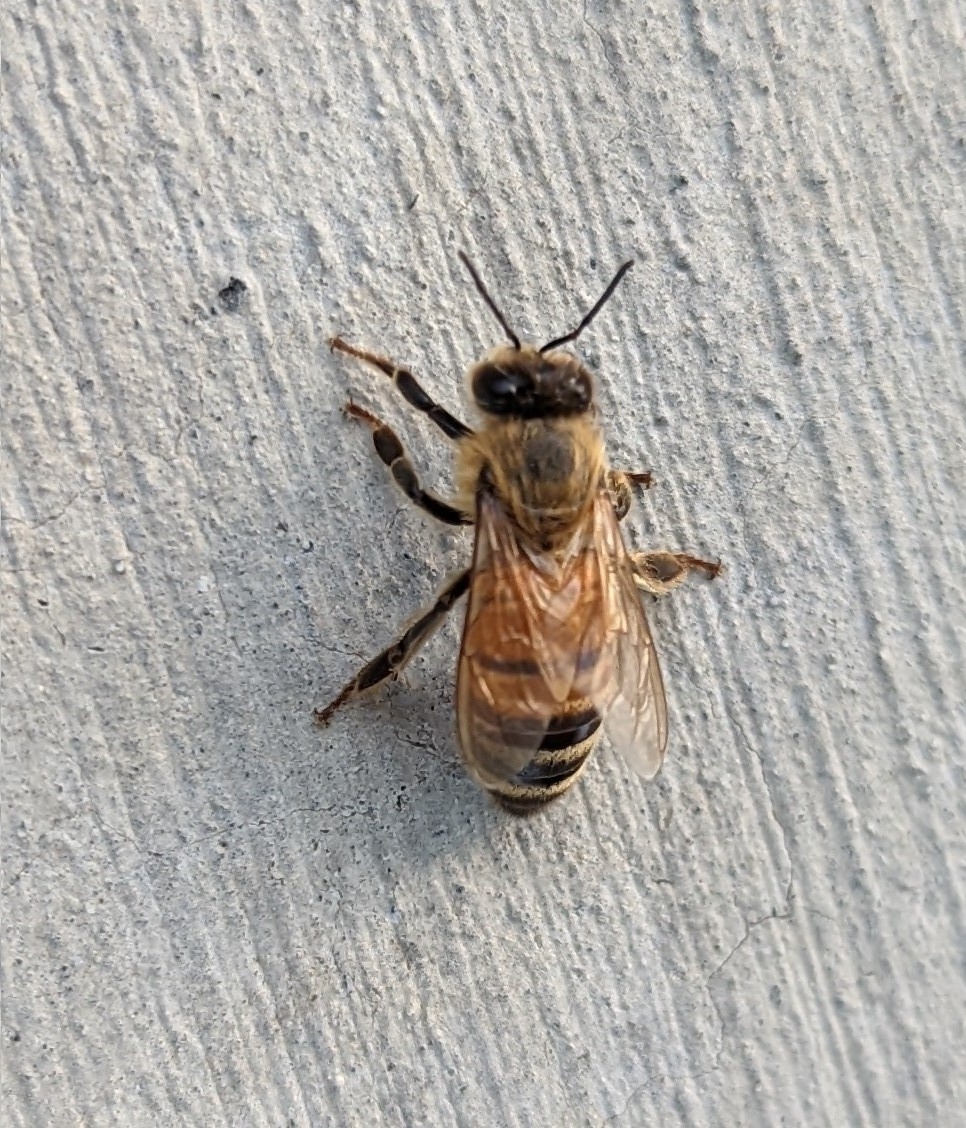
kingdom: Animalia
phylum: Arthropoda
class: Insecta
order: Hymenoptera
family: Apidae
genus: Apis
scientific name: Apis mellifera
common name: Honey bee
